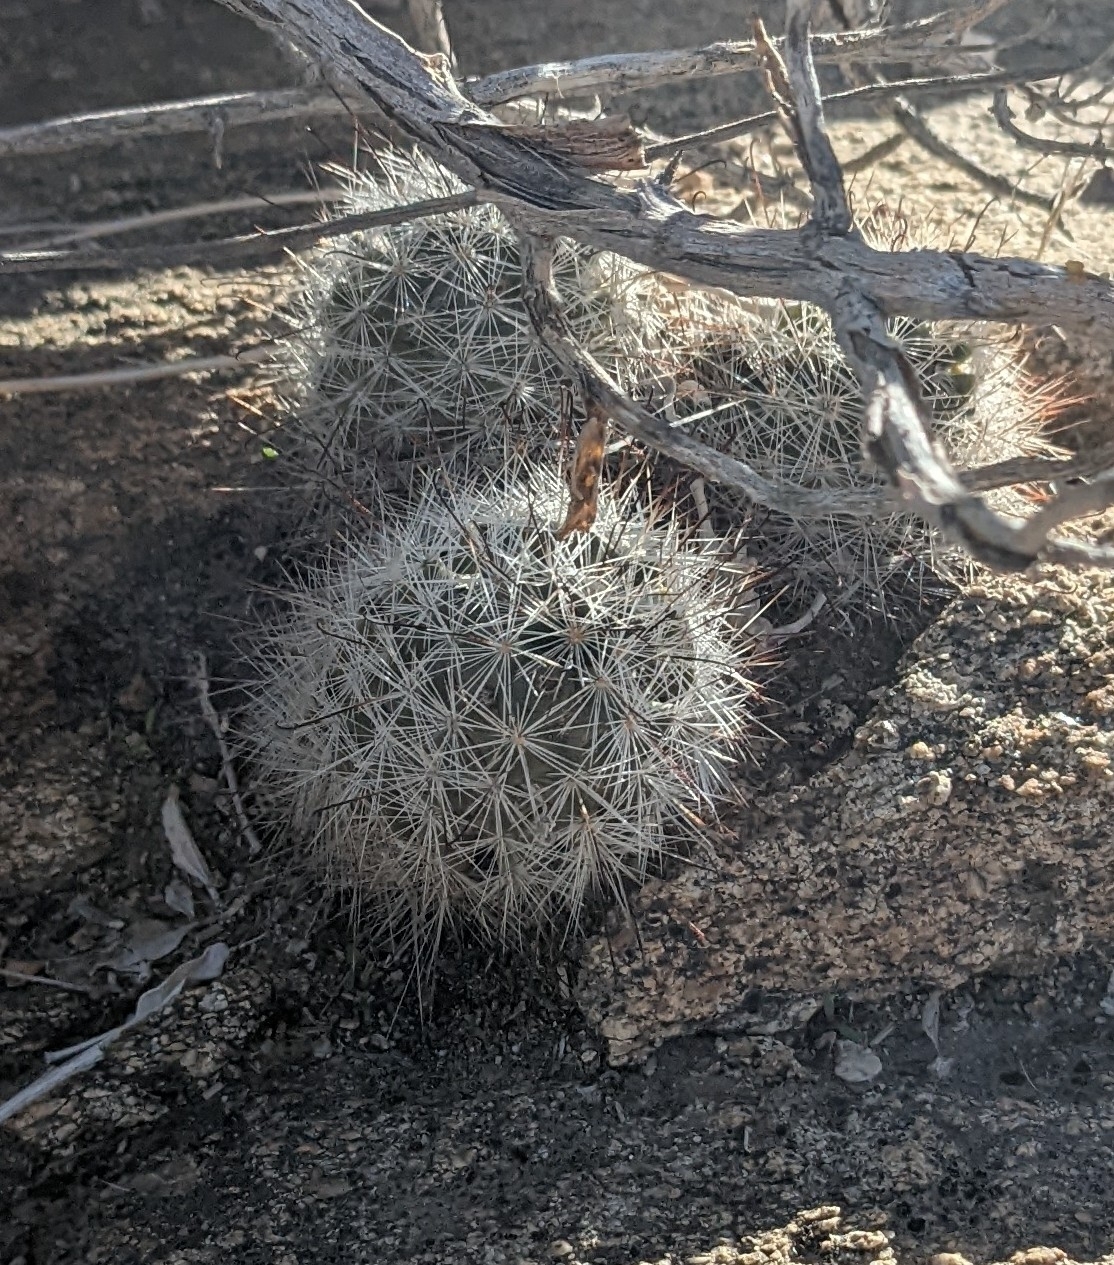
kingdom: Plantae
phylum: Tracheophyta
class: Magnoliopsida
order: Caryophyllales
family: Cactaceae
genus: Cochemiea
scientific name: Cochemiea tetrancistra
